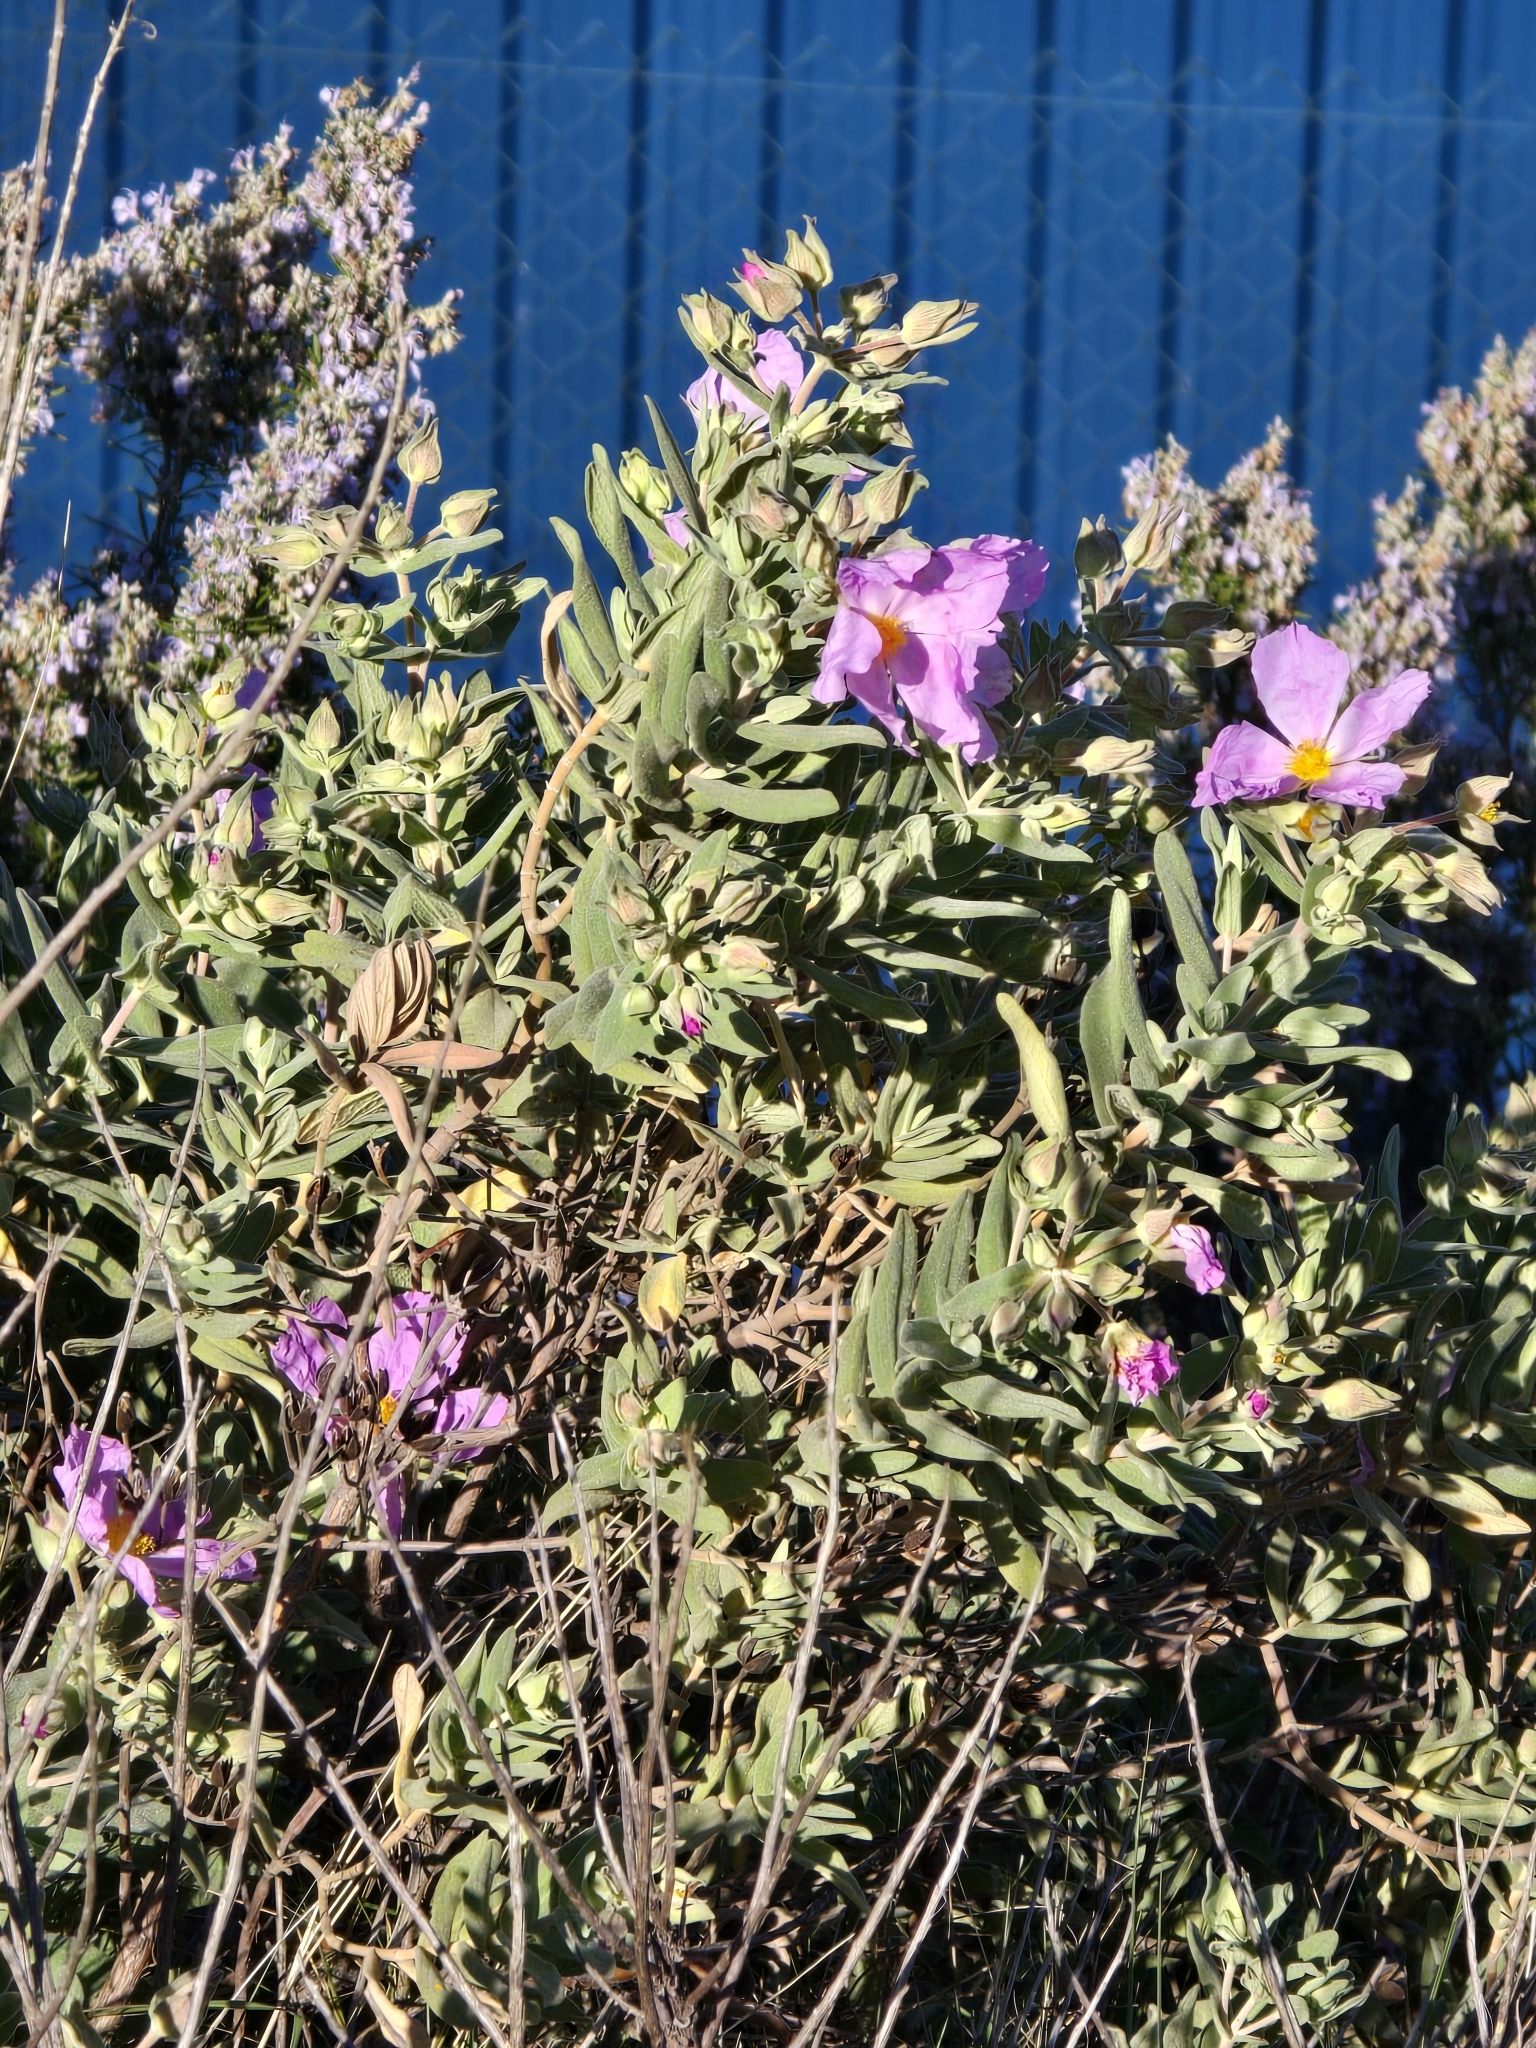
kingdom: Plantae
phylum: Tracheophyta
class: Magnoliopsida
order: Malvales
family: Cistaceae
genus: Cistus
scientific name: Cistus albidus
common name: White-leaf rock-rose
